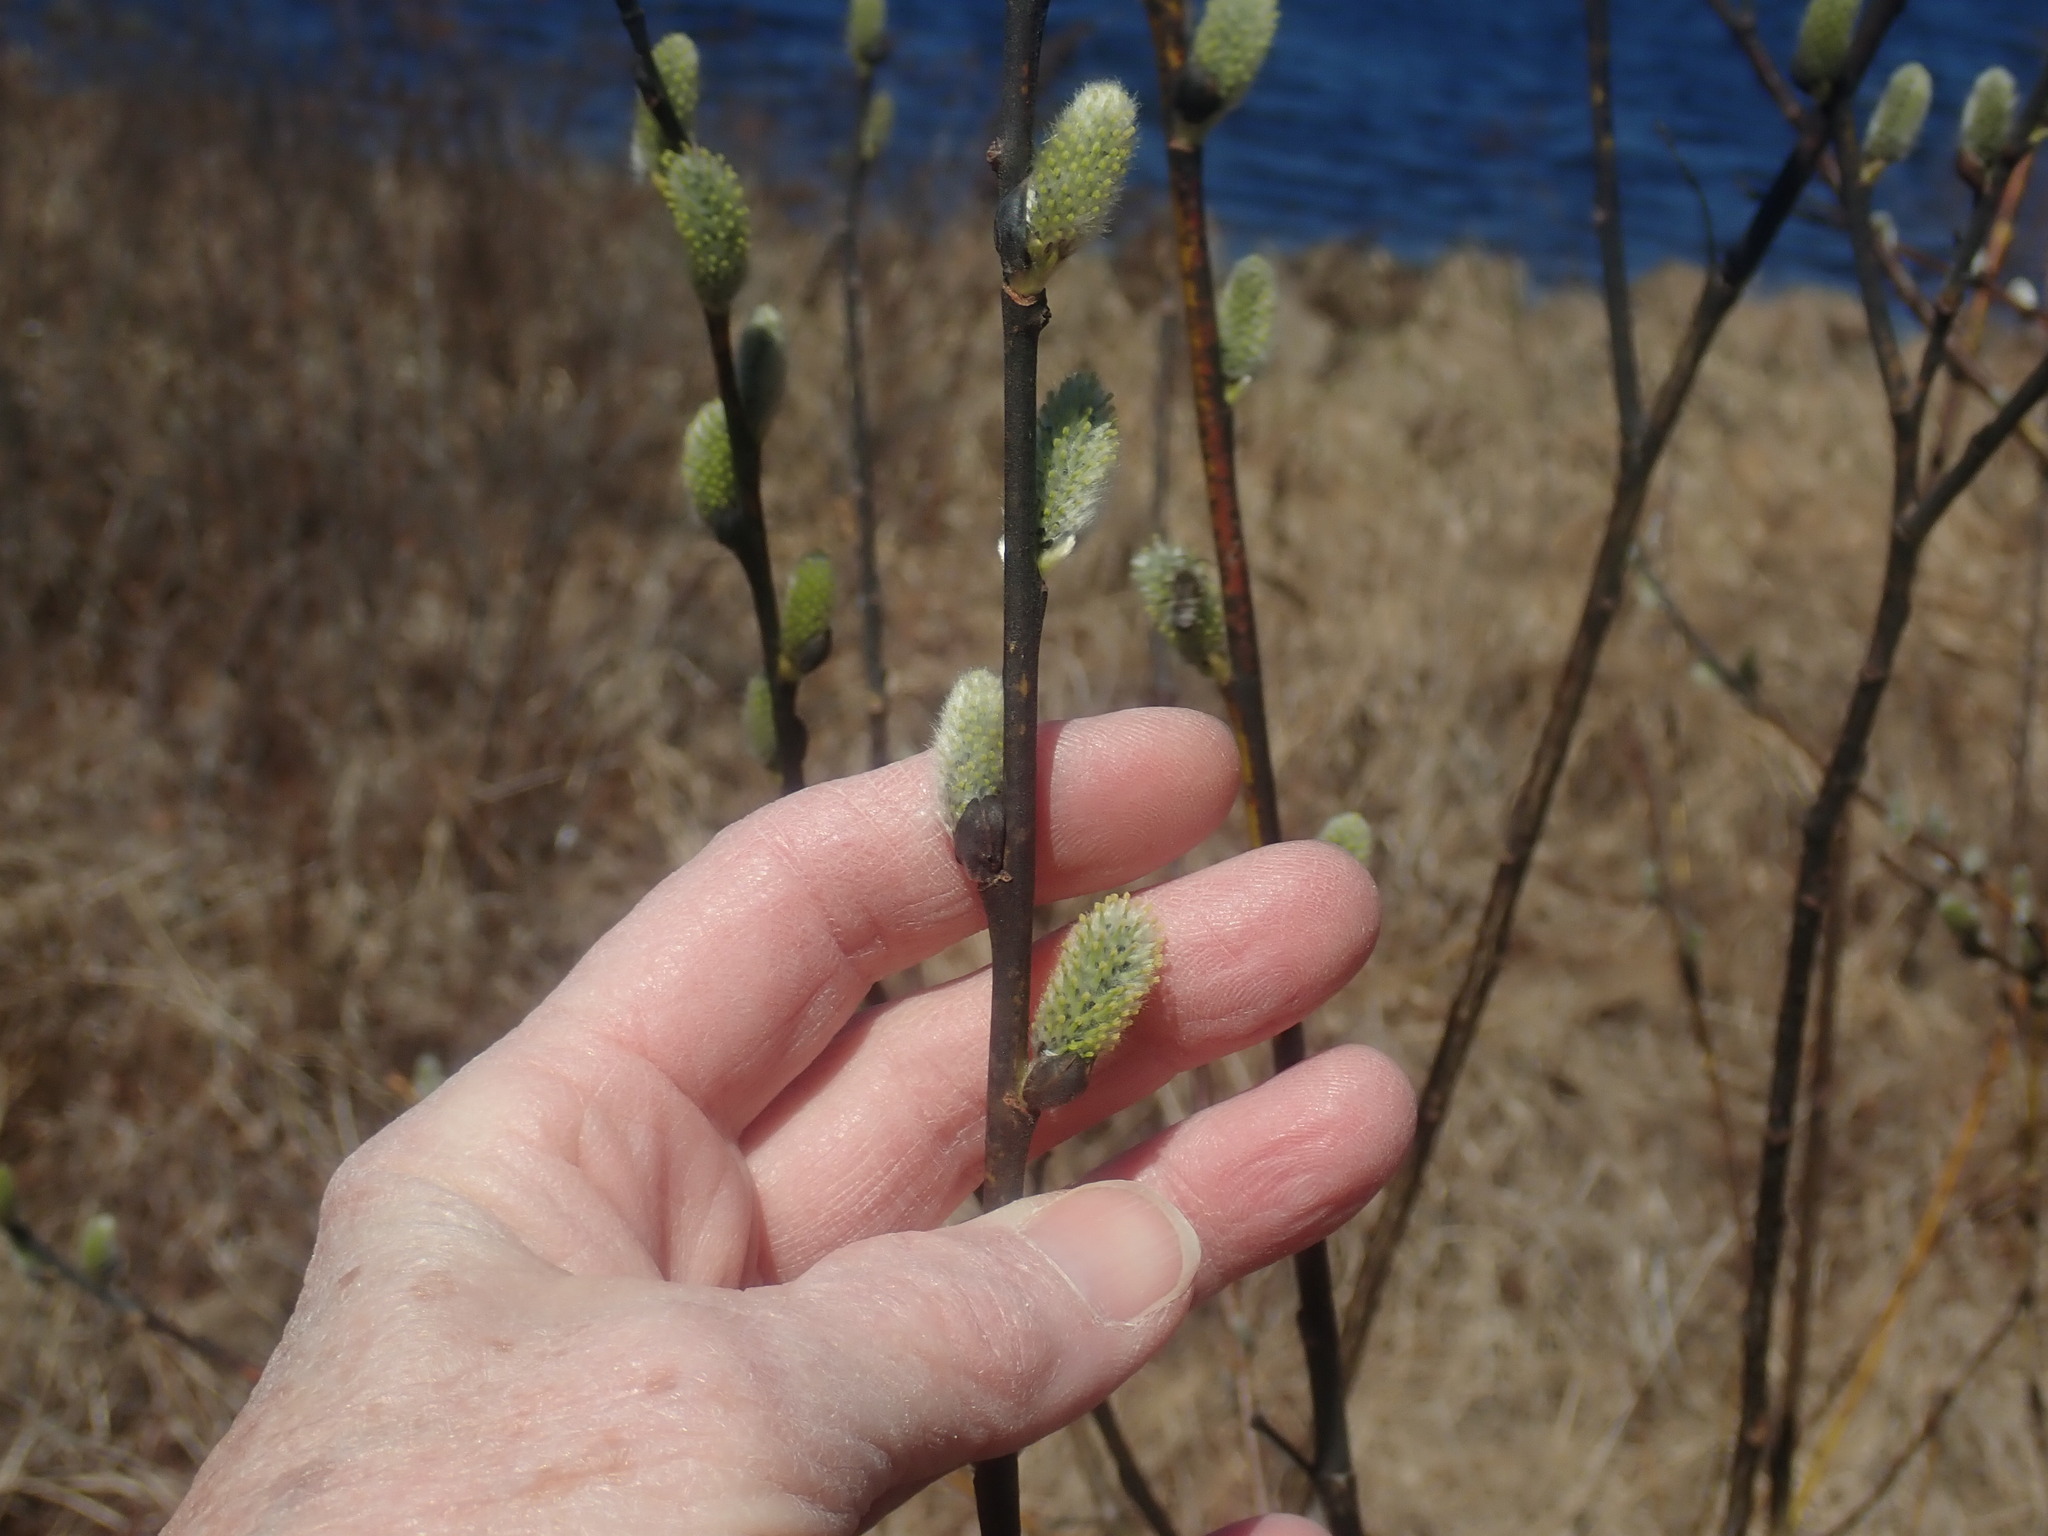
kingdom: Plantae
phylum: Tracheophyta
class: Magnoliopsida
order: Malpighiales
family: Salicaceae
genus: Salix
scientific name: Salix
